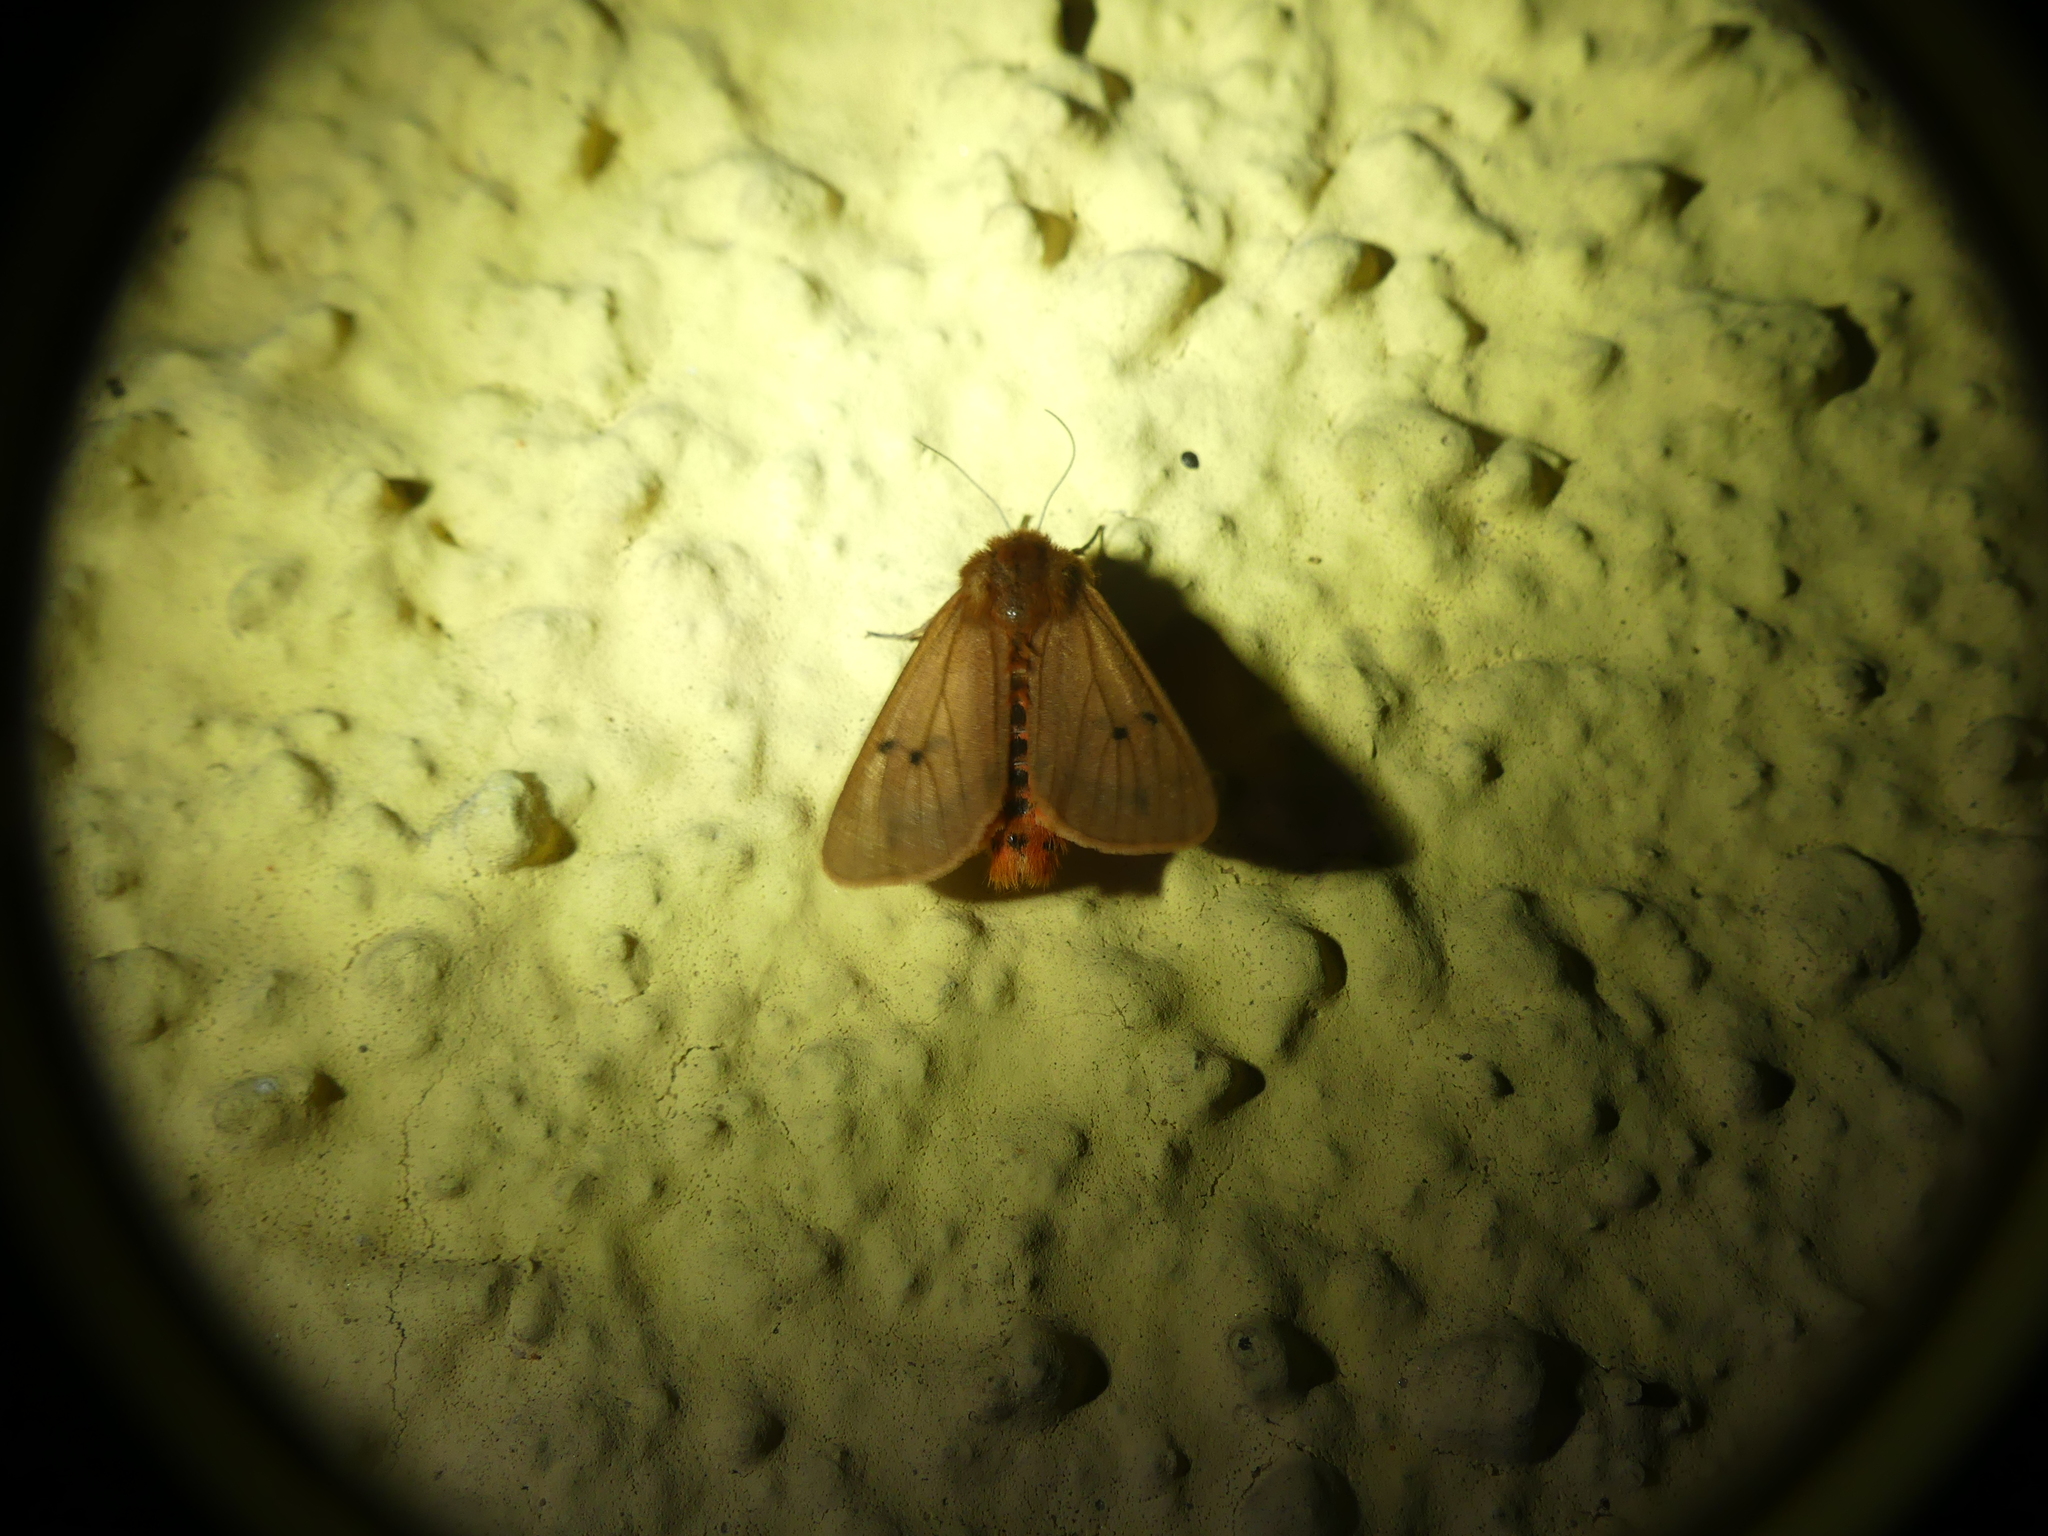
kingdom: Animalia
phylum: Arthropoda
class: Insecta
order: Lepidoptera
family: Erebidae
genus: Phragmatobia
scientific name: Phragmatobia fuliginosa
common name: Ruby tiger
